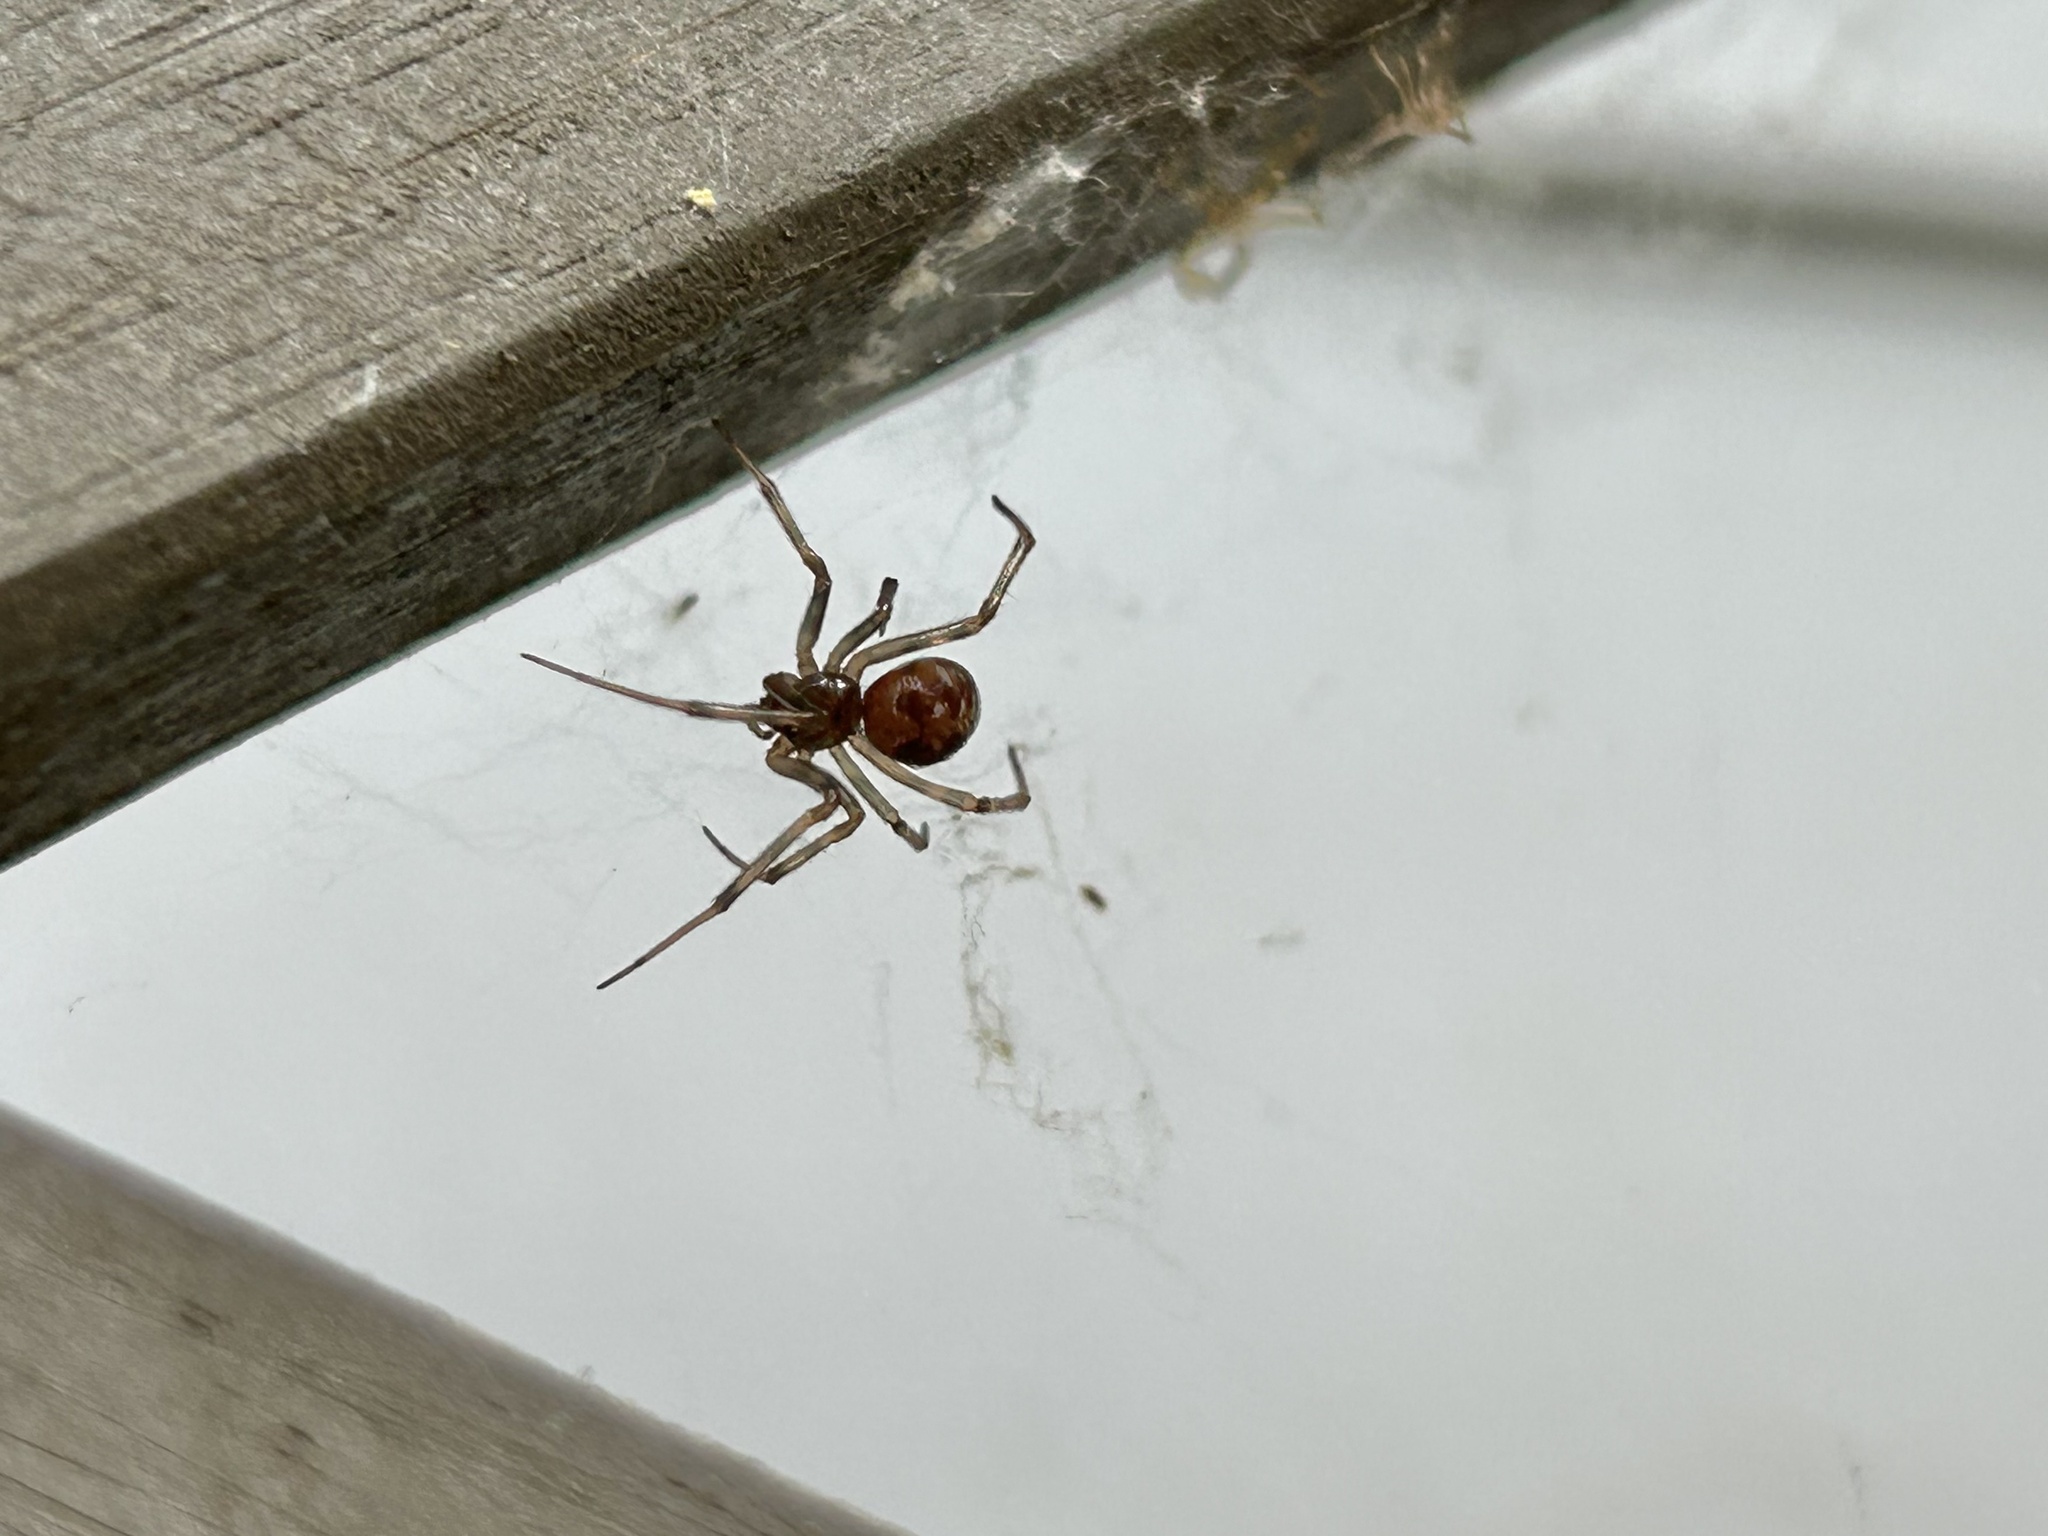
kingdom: Animalia
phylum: Arthropoda
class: Arachnida
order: Araneae
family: Theridiidae
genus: Steatoda
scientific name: Steatoda triangulosa
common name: Triangulate bud spider
